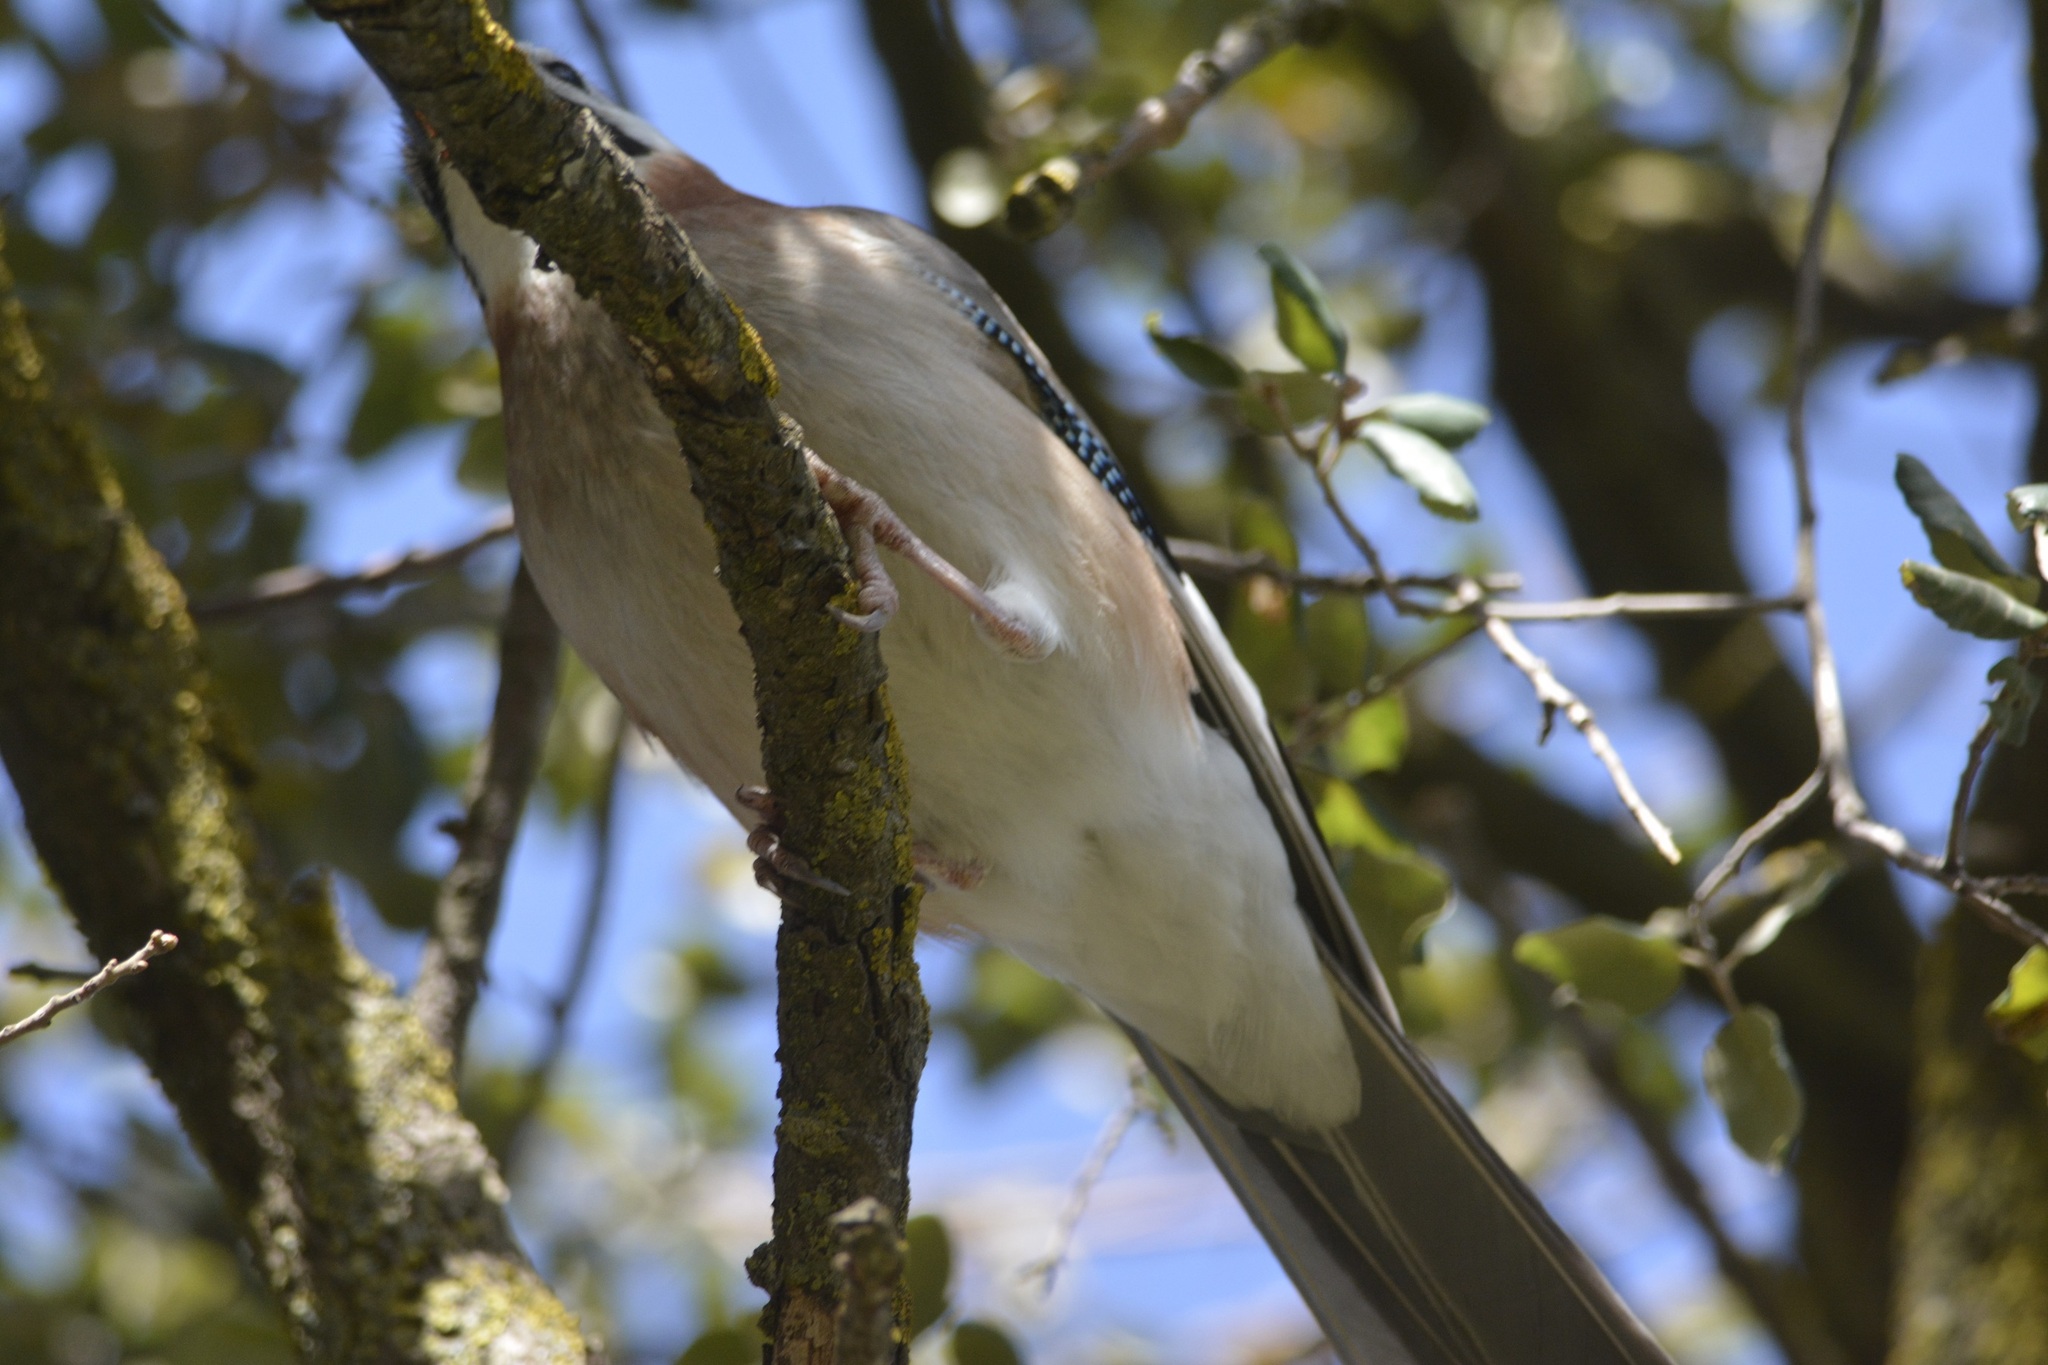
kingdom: Animalia
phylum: Chordata
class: Aves
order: Passeriformes
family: Corvidae
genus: Garrulus
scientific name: Garrulus glandarius
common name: Eurasian jay
